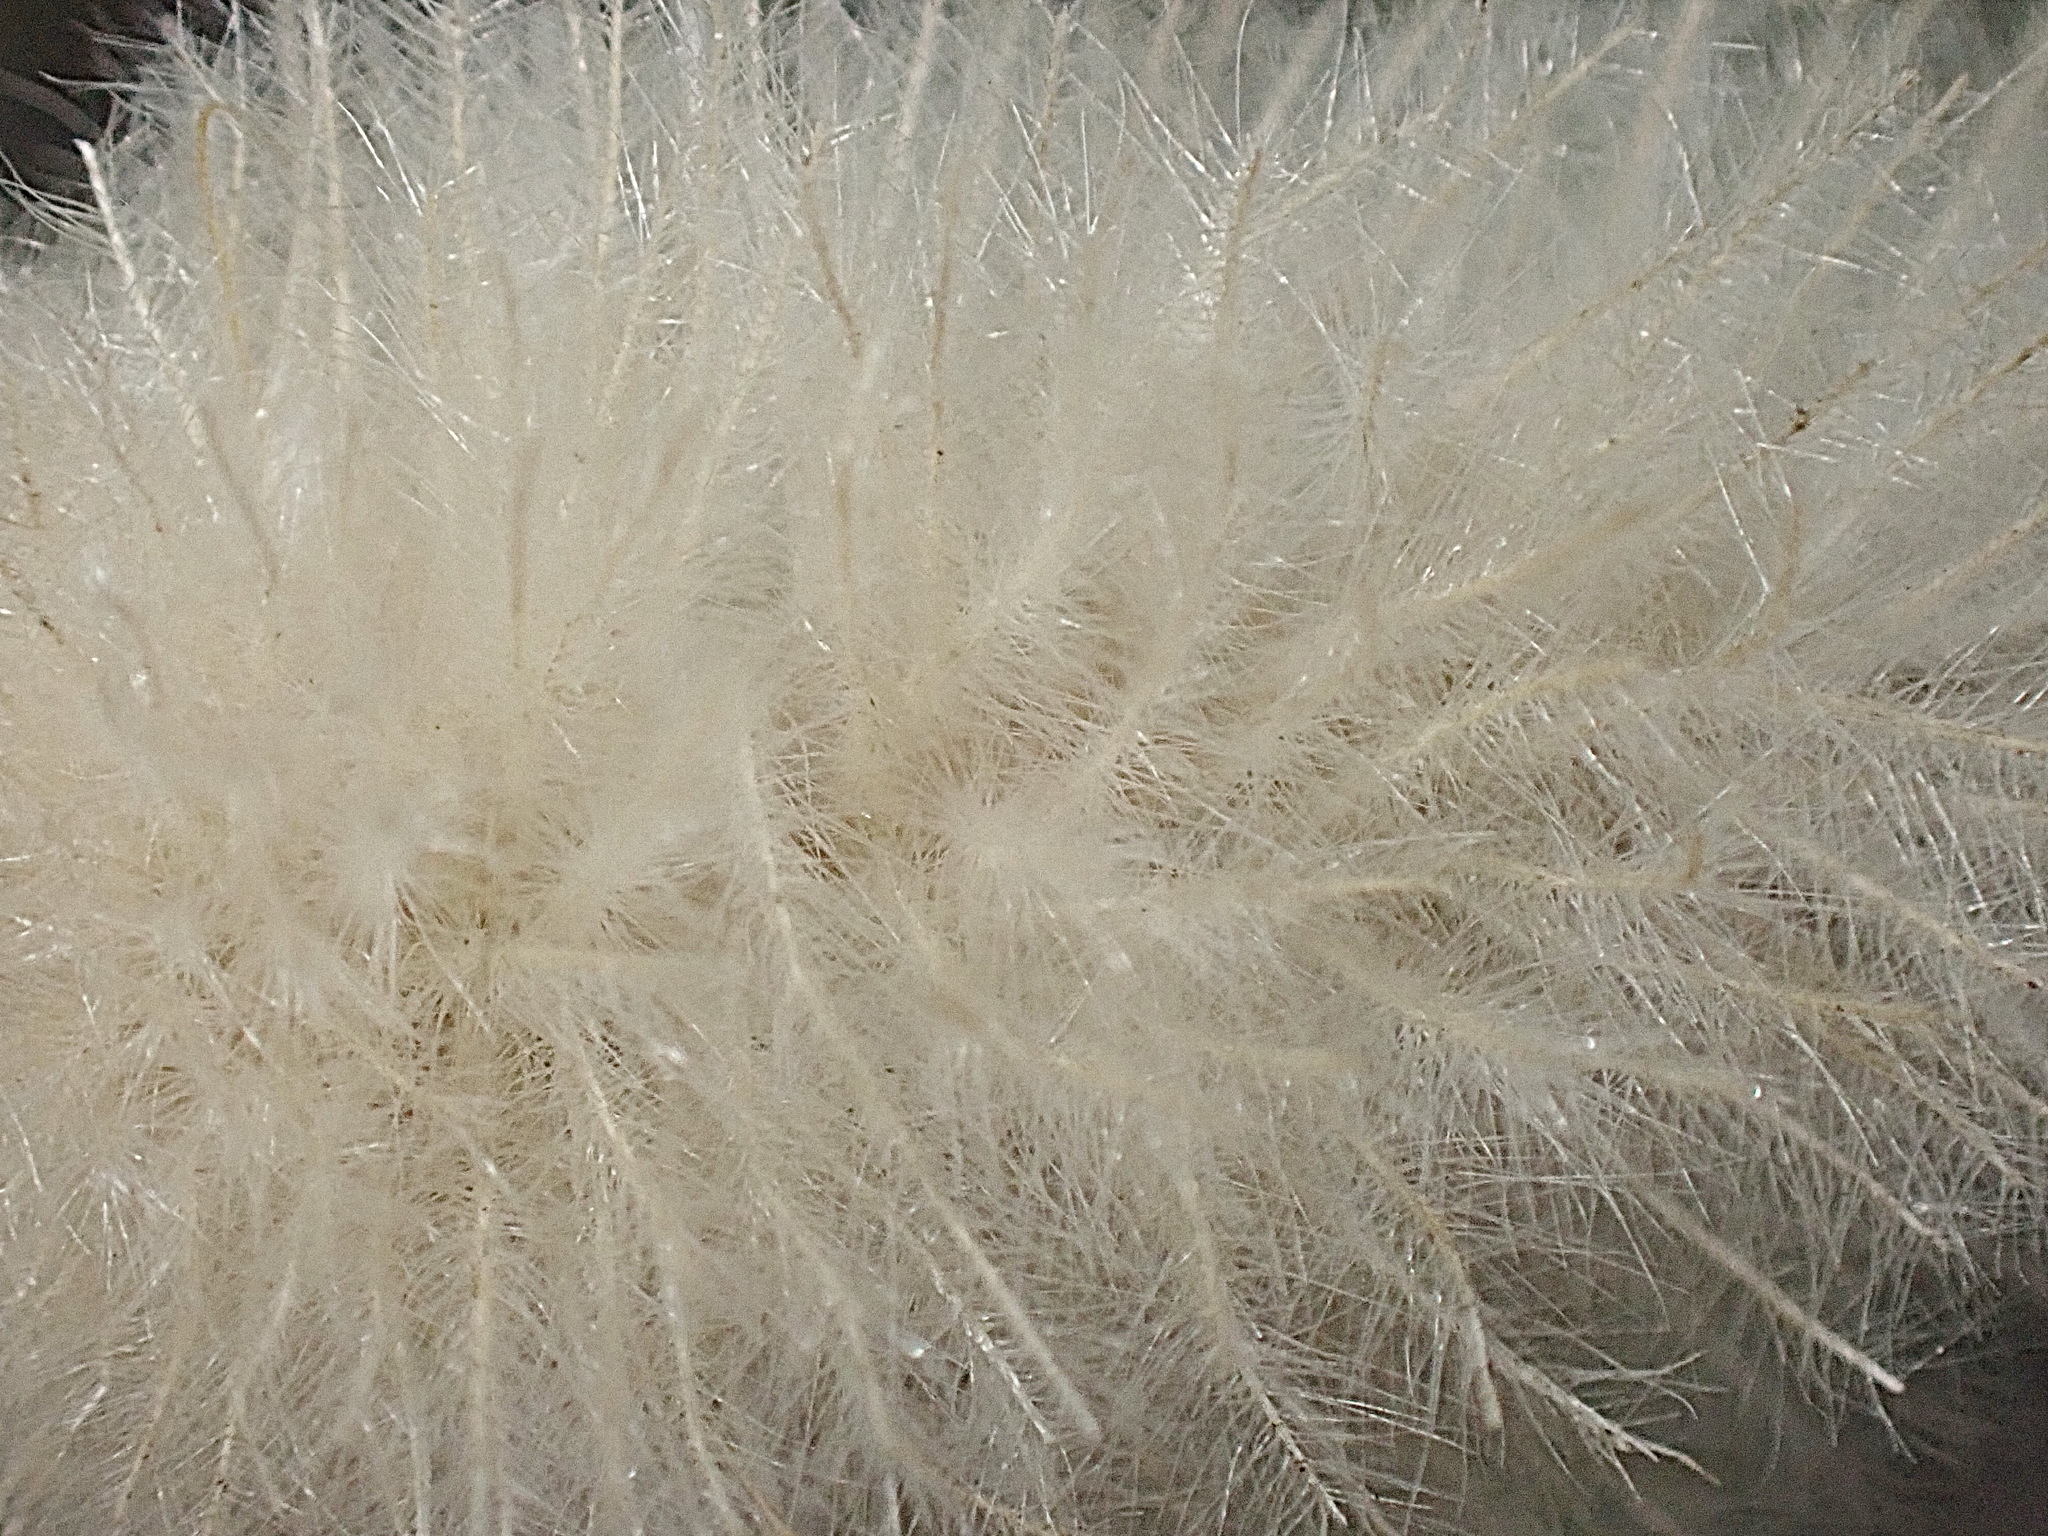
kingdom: Plantae
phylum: Tracheophyta
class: Liliopsida
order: Poales
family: Poaceae
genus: Lagurus
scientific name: Lagurus ovatus
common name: Hare's-tail
